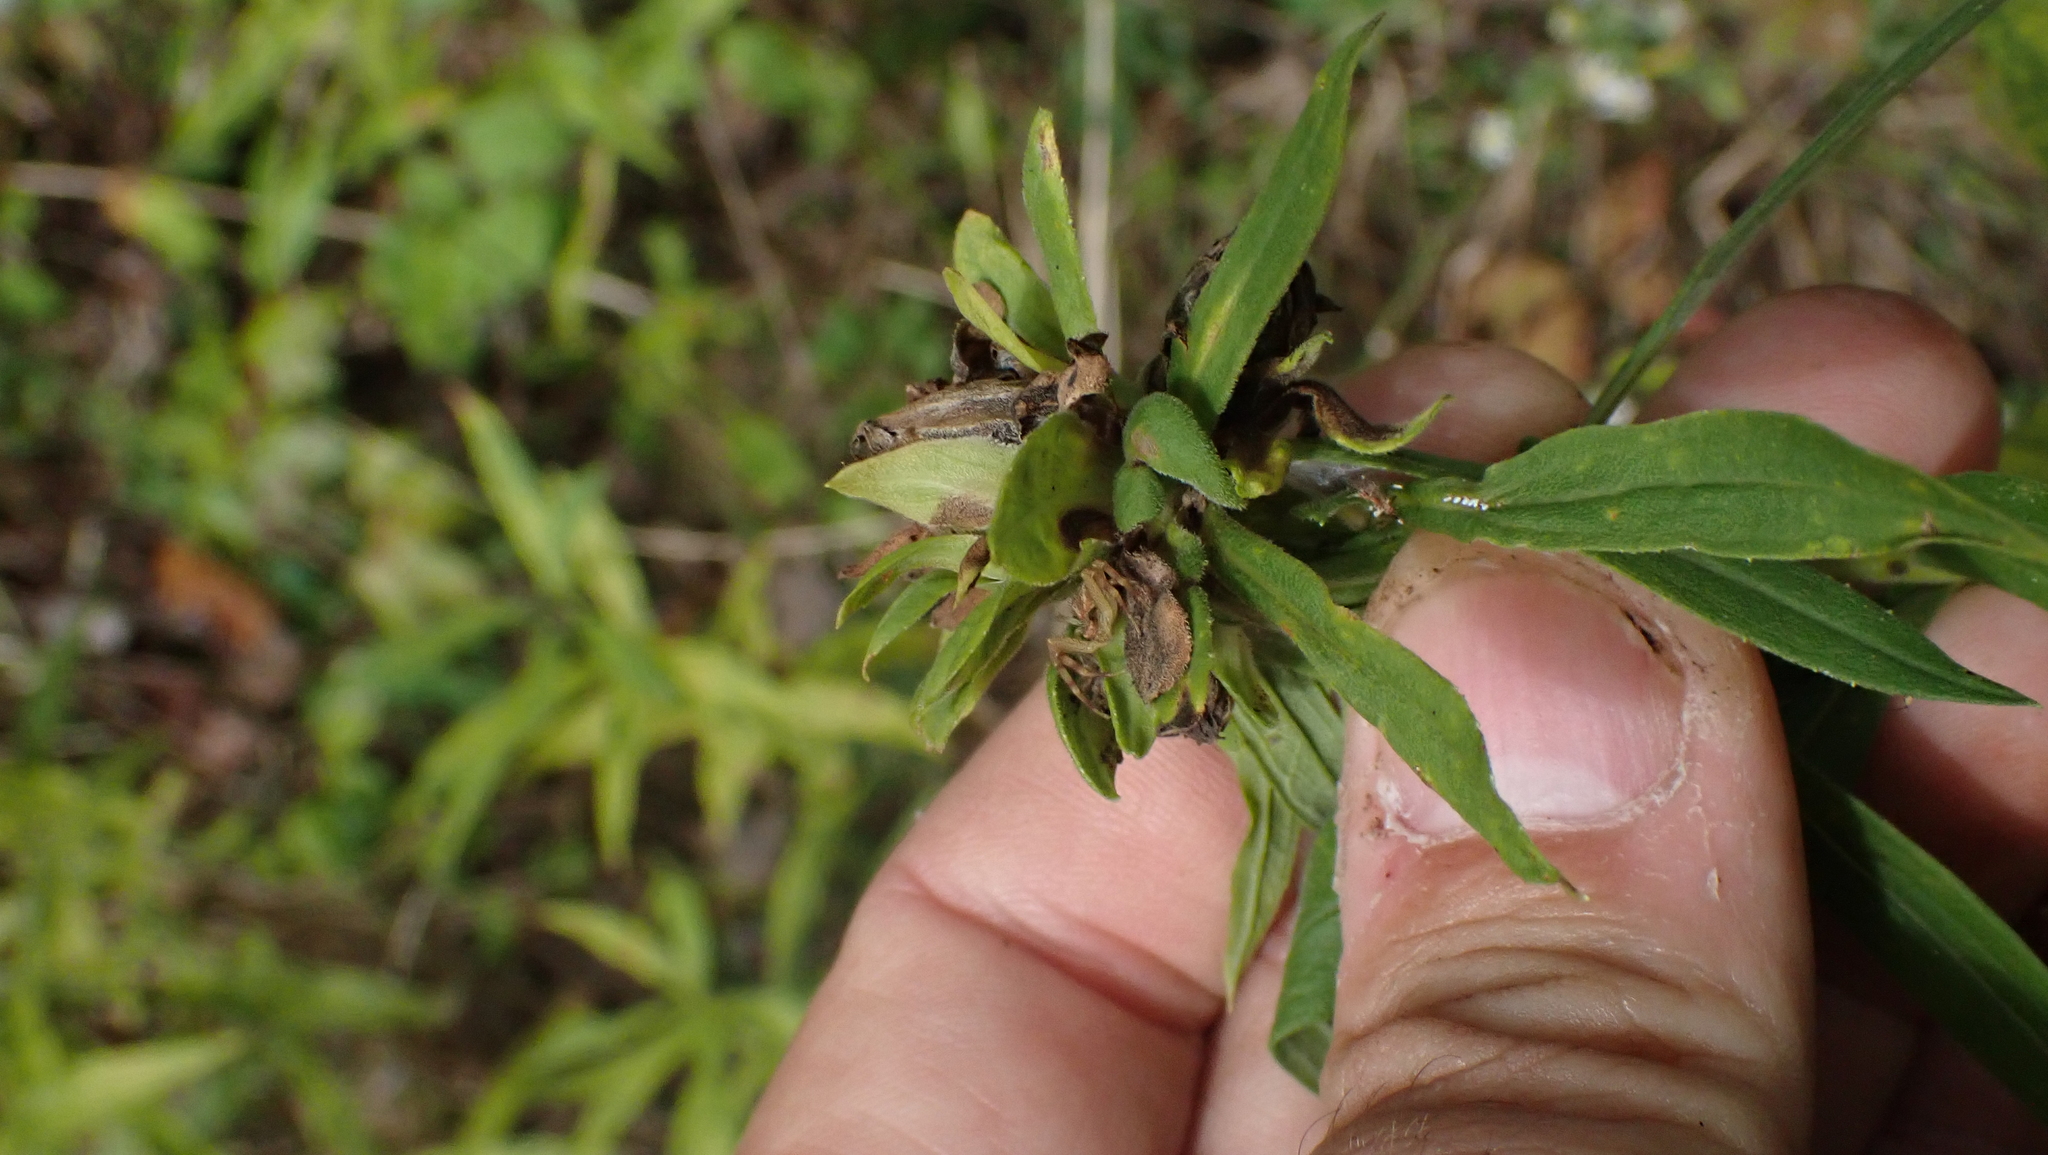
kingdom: Animalia
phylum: Arthropoda
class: Insecta
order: Diptera
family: Tephritidae
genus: Procecidochares
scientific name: Procecidochares atra
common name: Goldenrod brussels sprout gall fly
